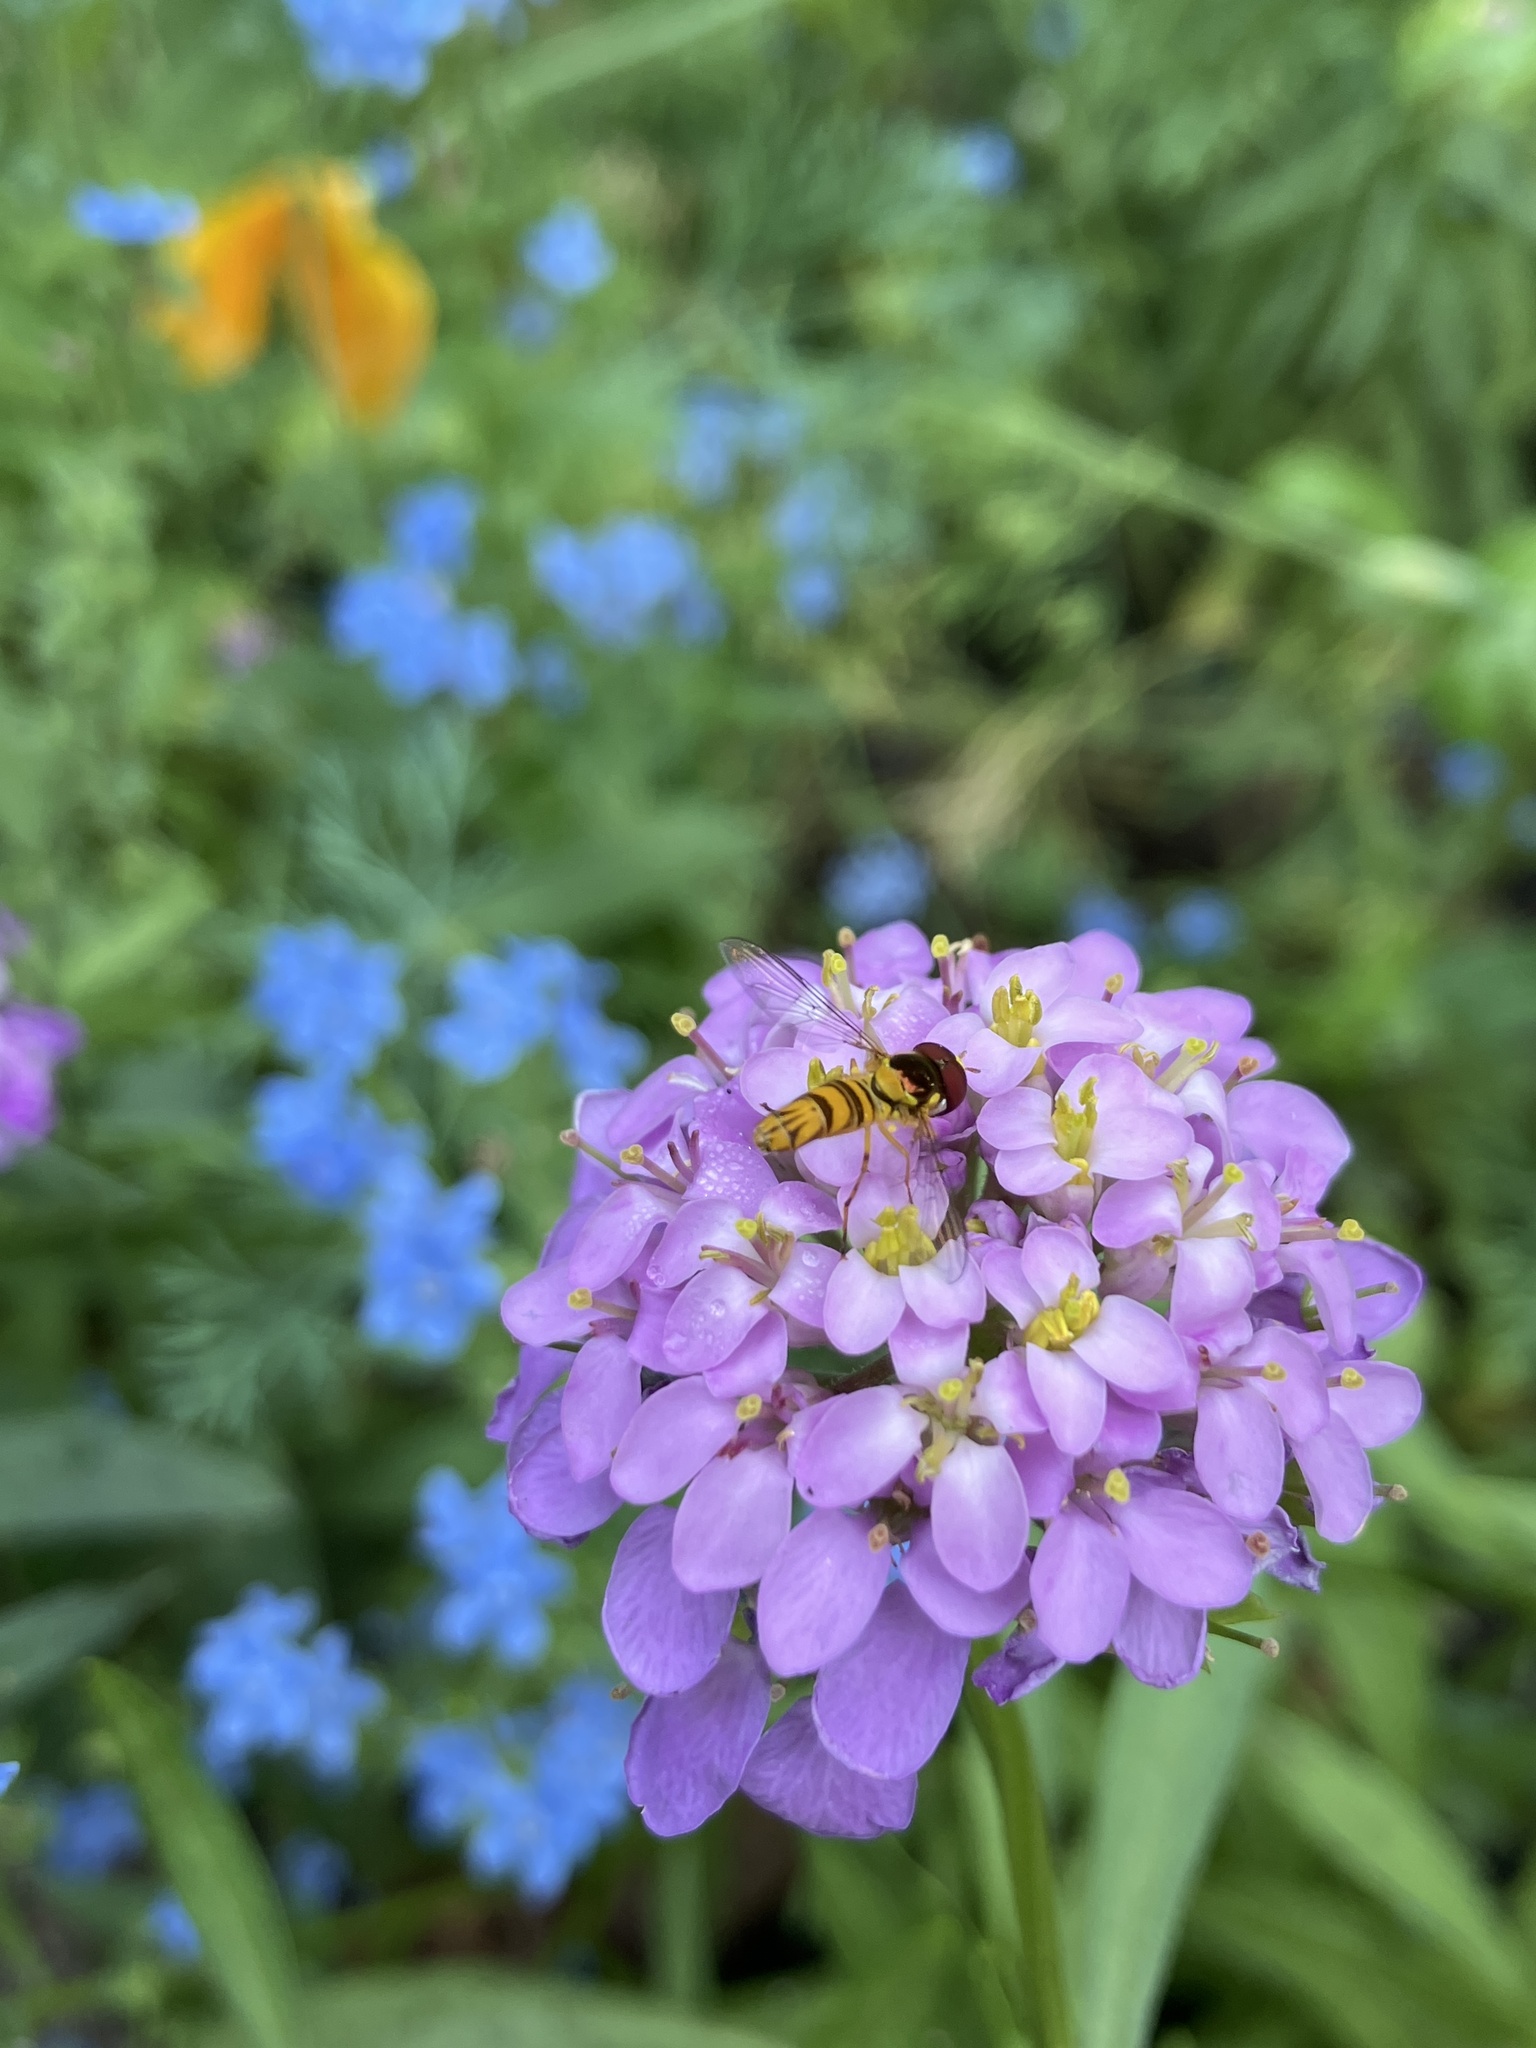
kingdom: Animalia
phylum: Arthropoda
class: Insecta
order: Diptera
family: Syrphidae
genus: Allograpta
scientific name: Allograpta obliqua
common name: Common oblique syrphid
